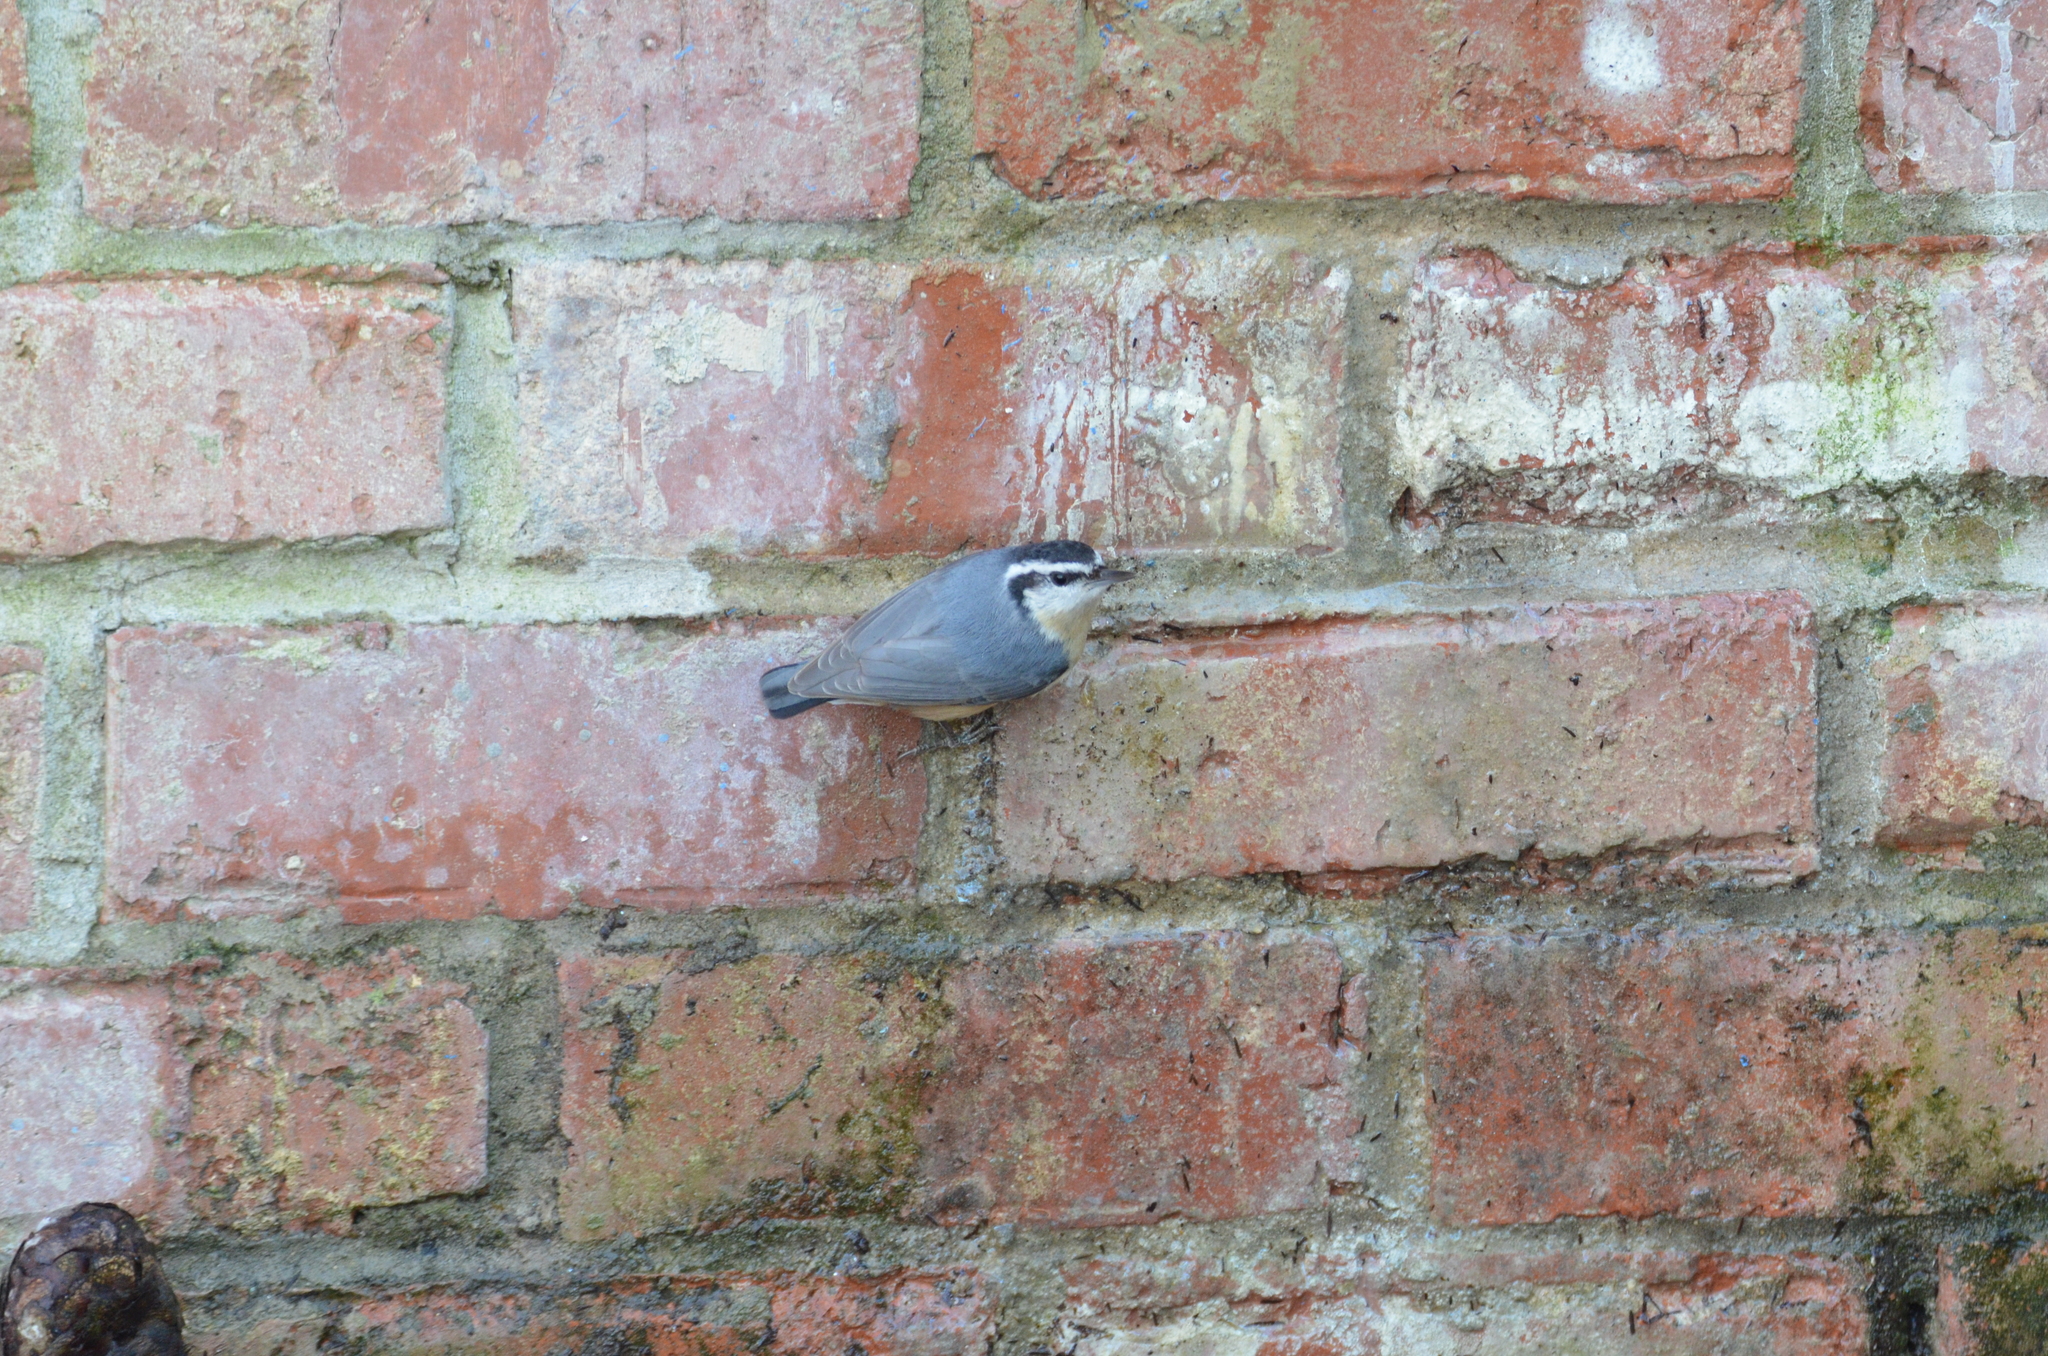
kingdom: Animalia
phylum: Chordata
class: Aves
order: Passeriformes
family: Sittidae
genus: Sitta
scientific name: Sitta canadensis
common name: Red-breasted nuthatch
